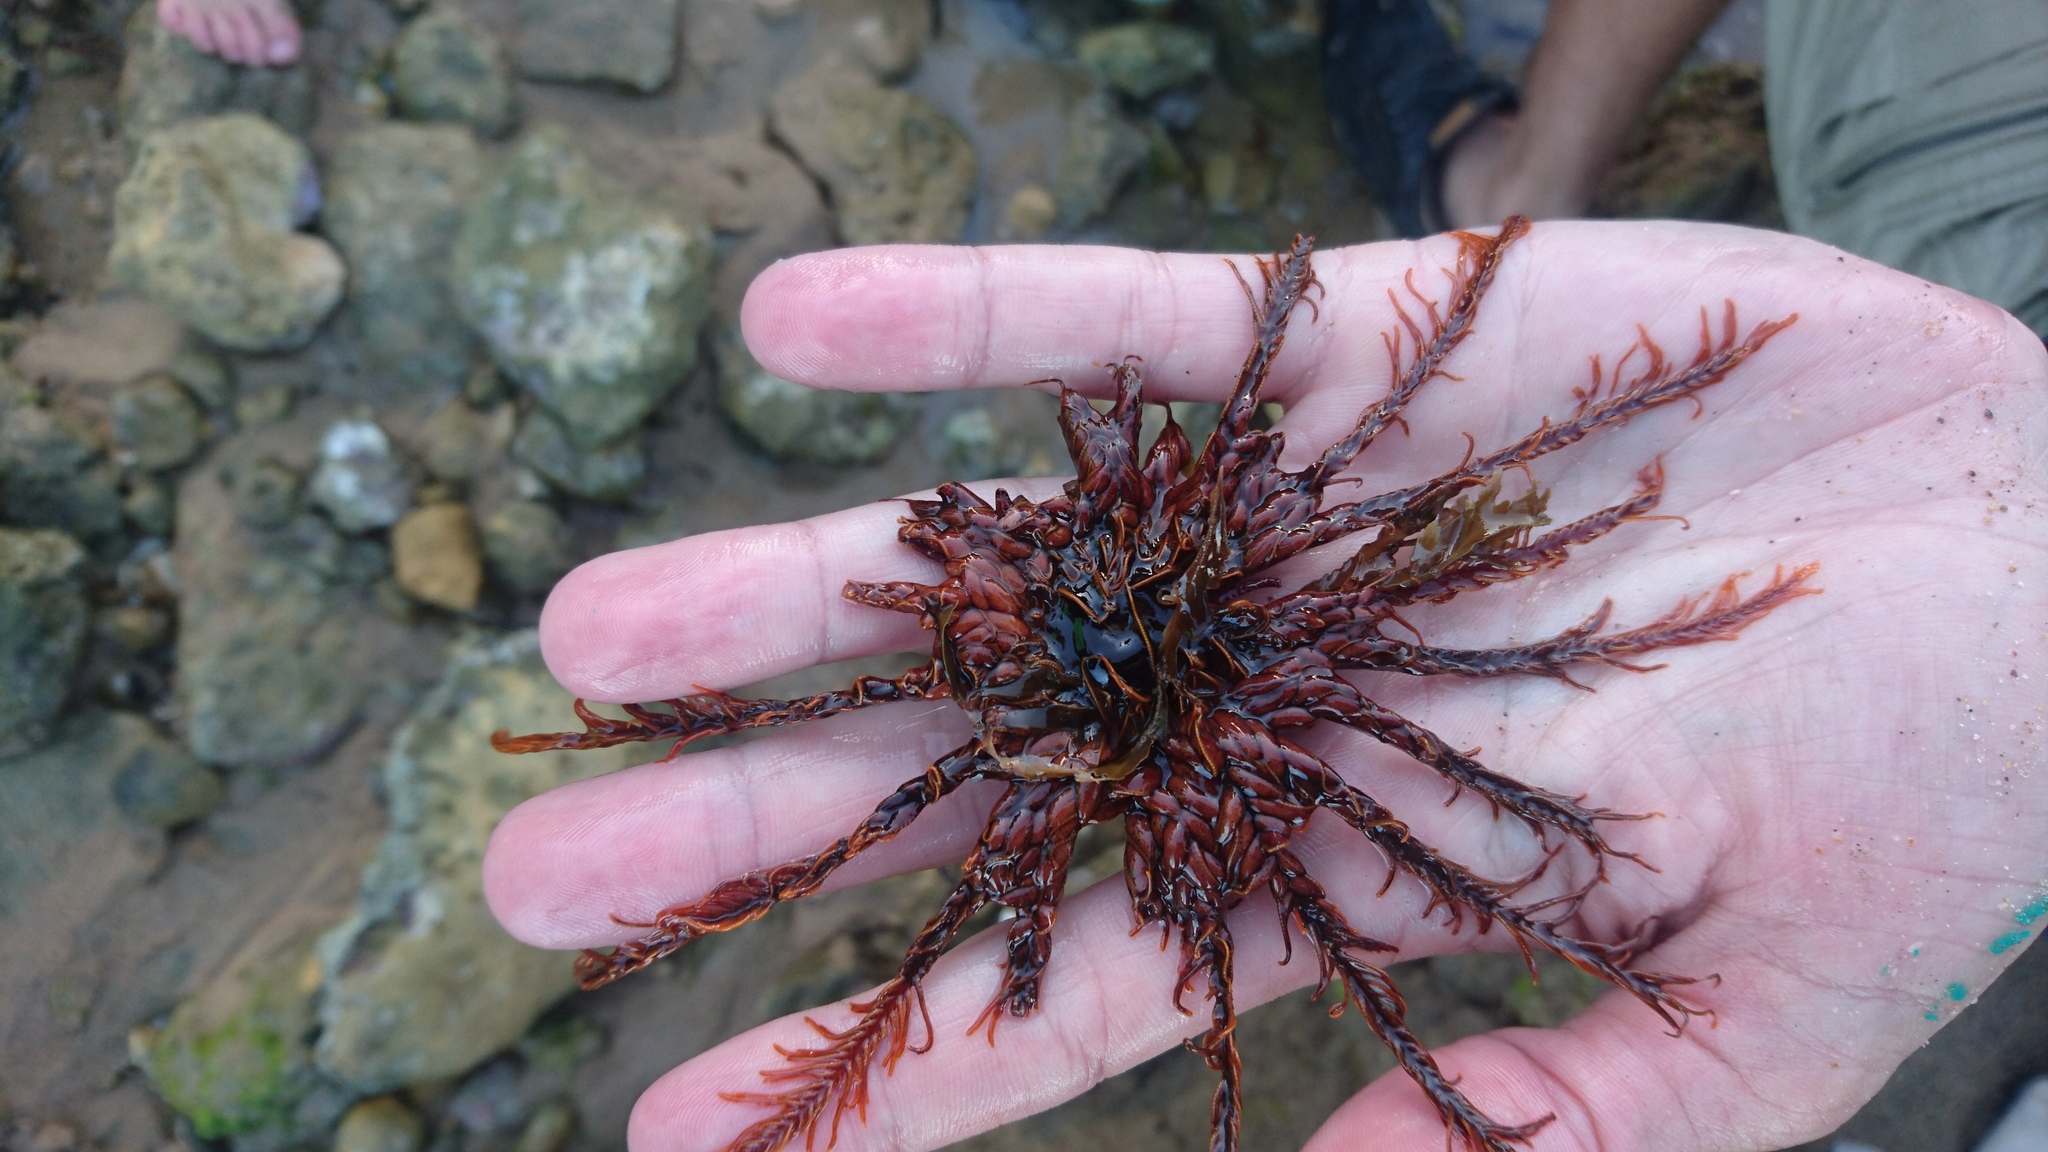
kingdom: Animalia
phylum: Echinodermata
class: Crinoidea
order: Comatulida
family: Comatulidae
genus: Cenolia
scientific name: Cenolia
